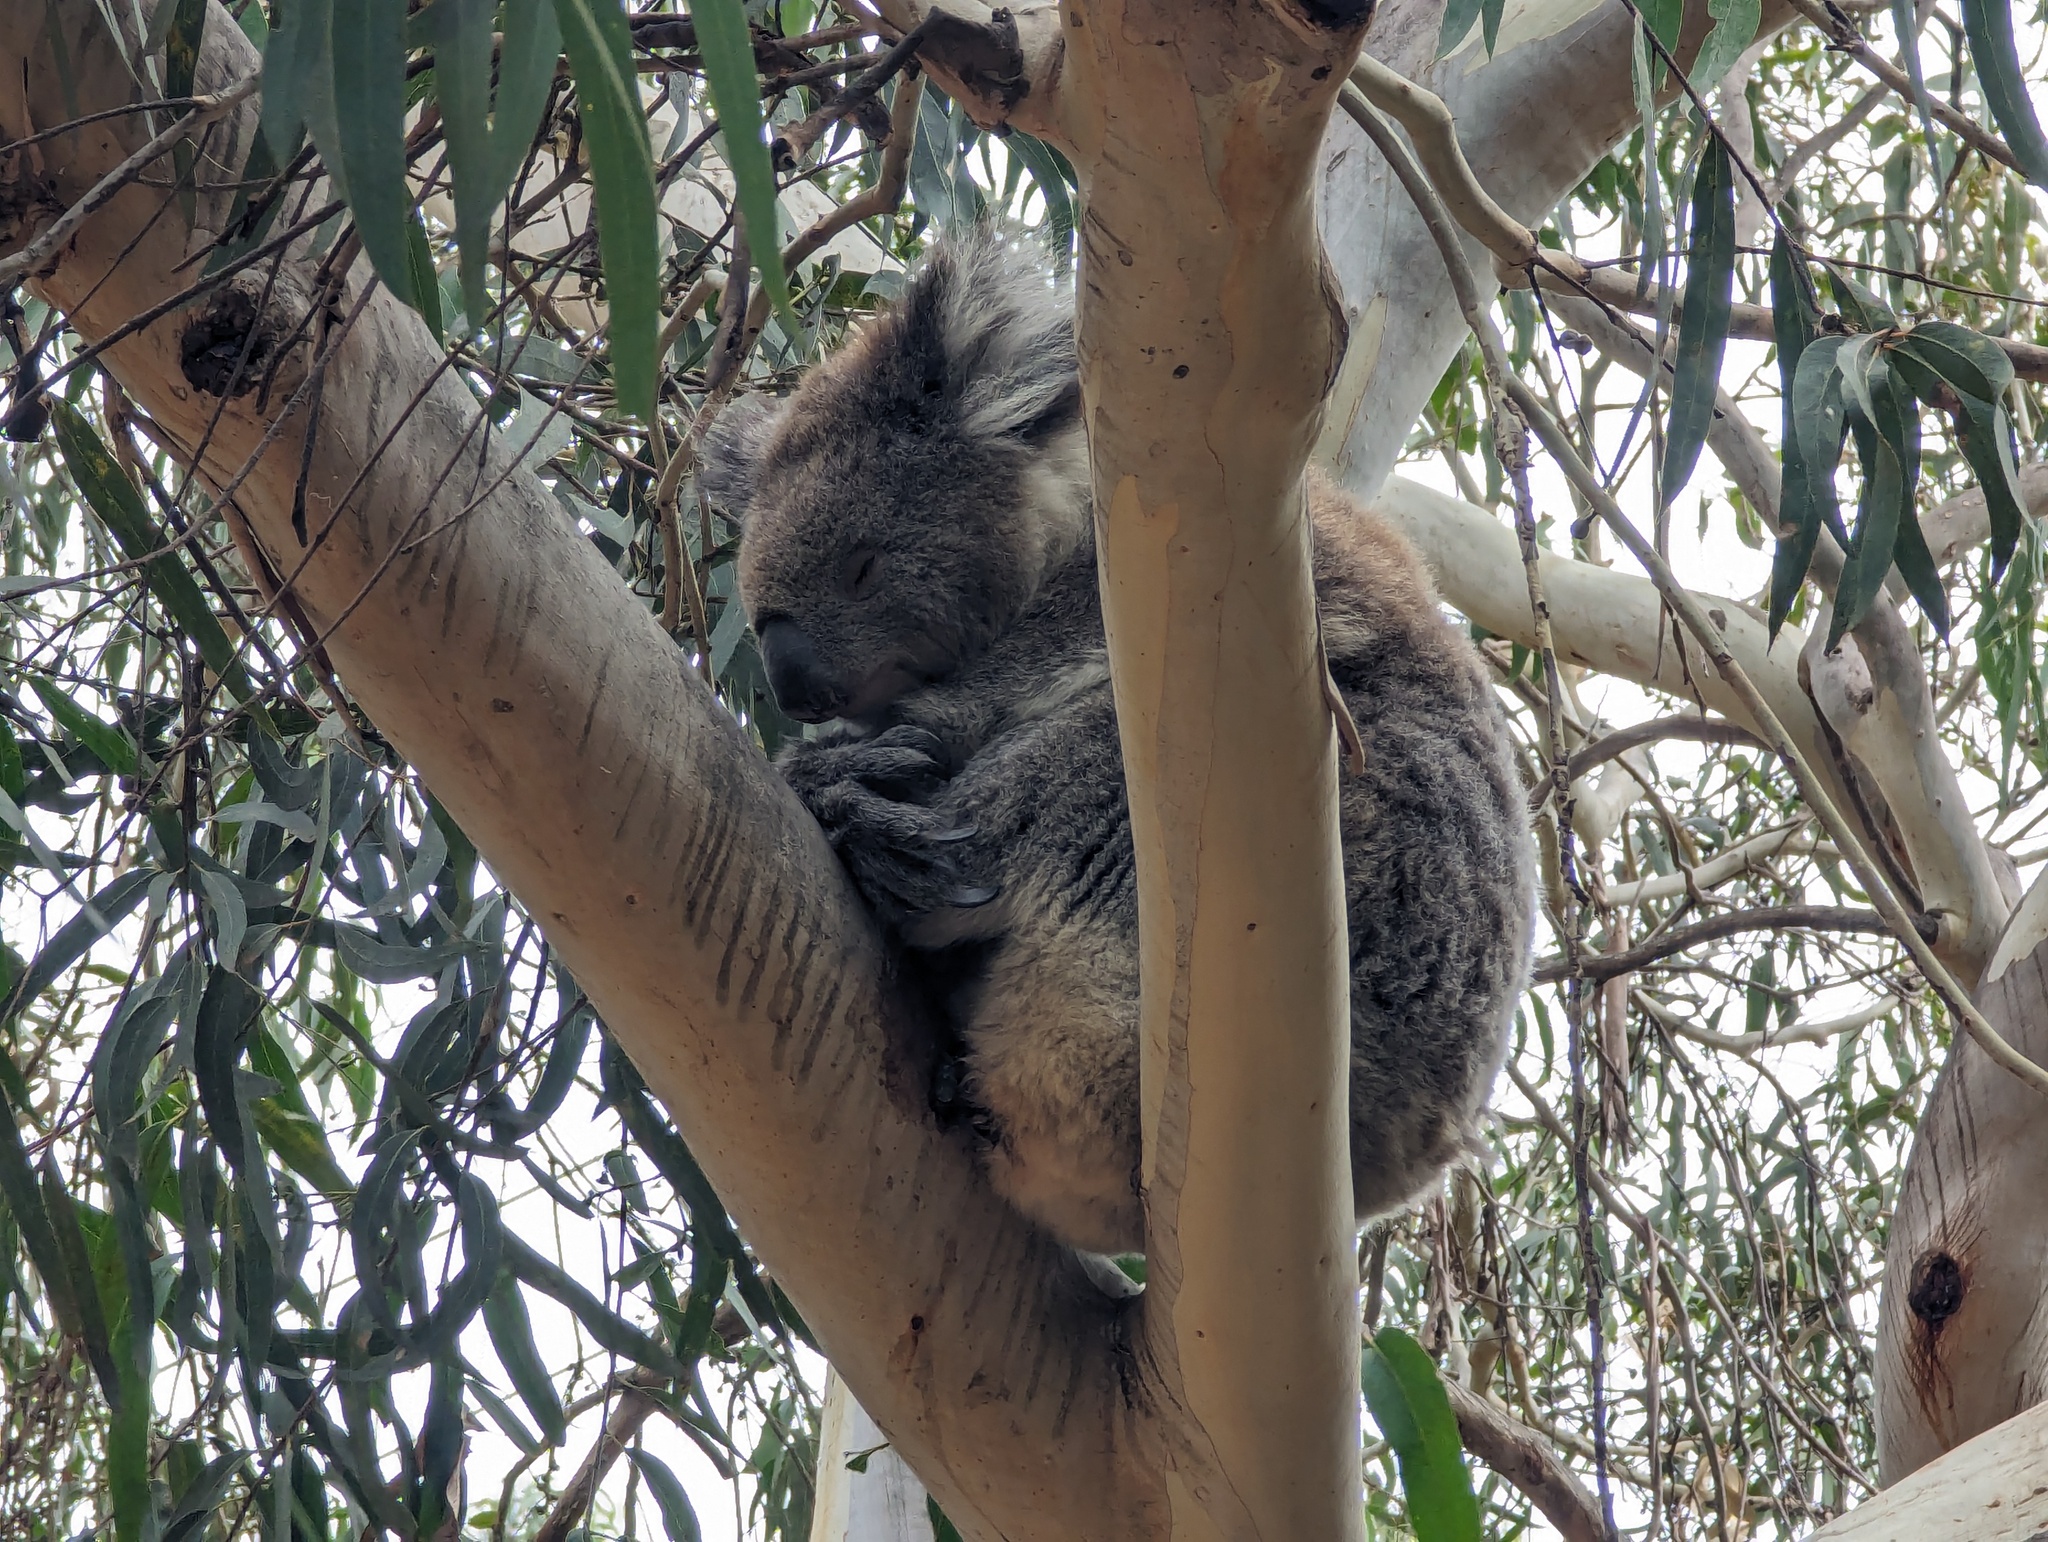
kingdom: Animalia
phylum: Chordata
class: Mammalia
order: Diprotodontia
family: Phascolarctidae
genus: Phascolarctos
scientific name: Phascolarctos cinereus
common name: Koala
